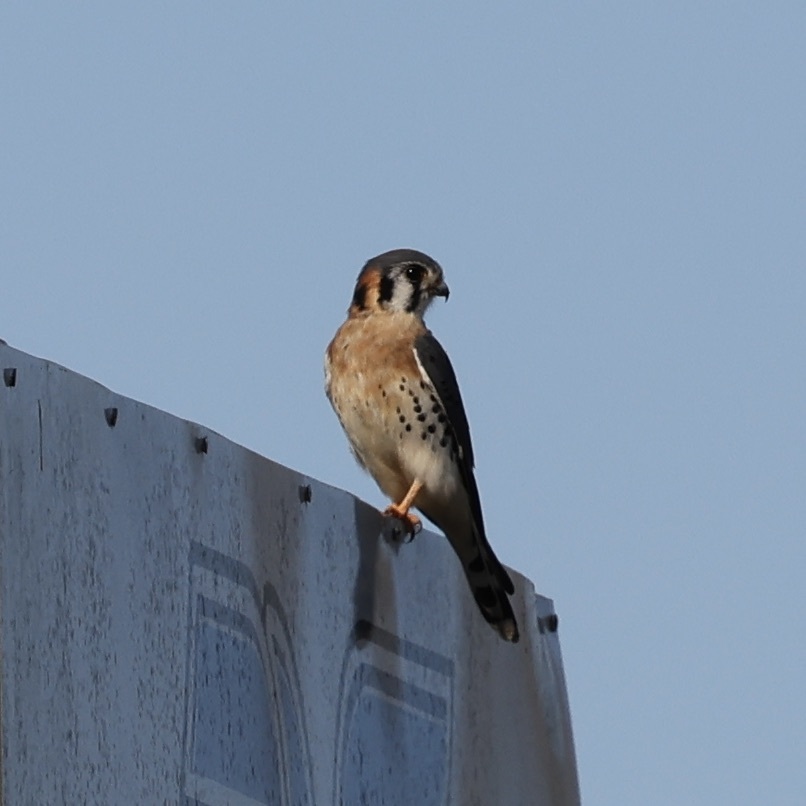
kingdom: Animalia
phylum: Chordata
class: Aves
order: Falconiformes
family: Falconidae
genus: Falco
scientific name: Falco sparverius
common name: American kestrel
